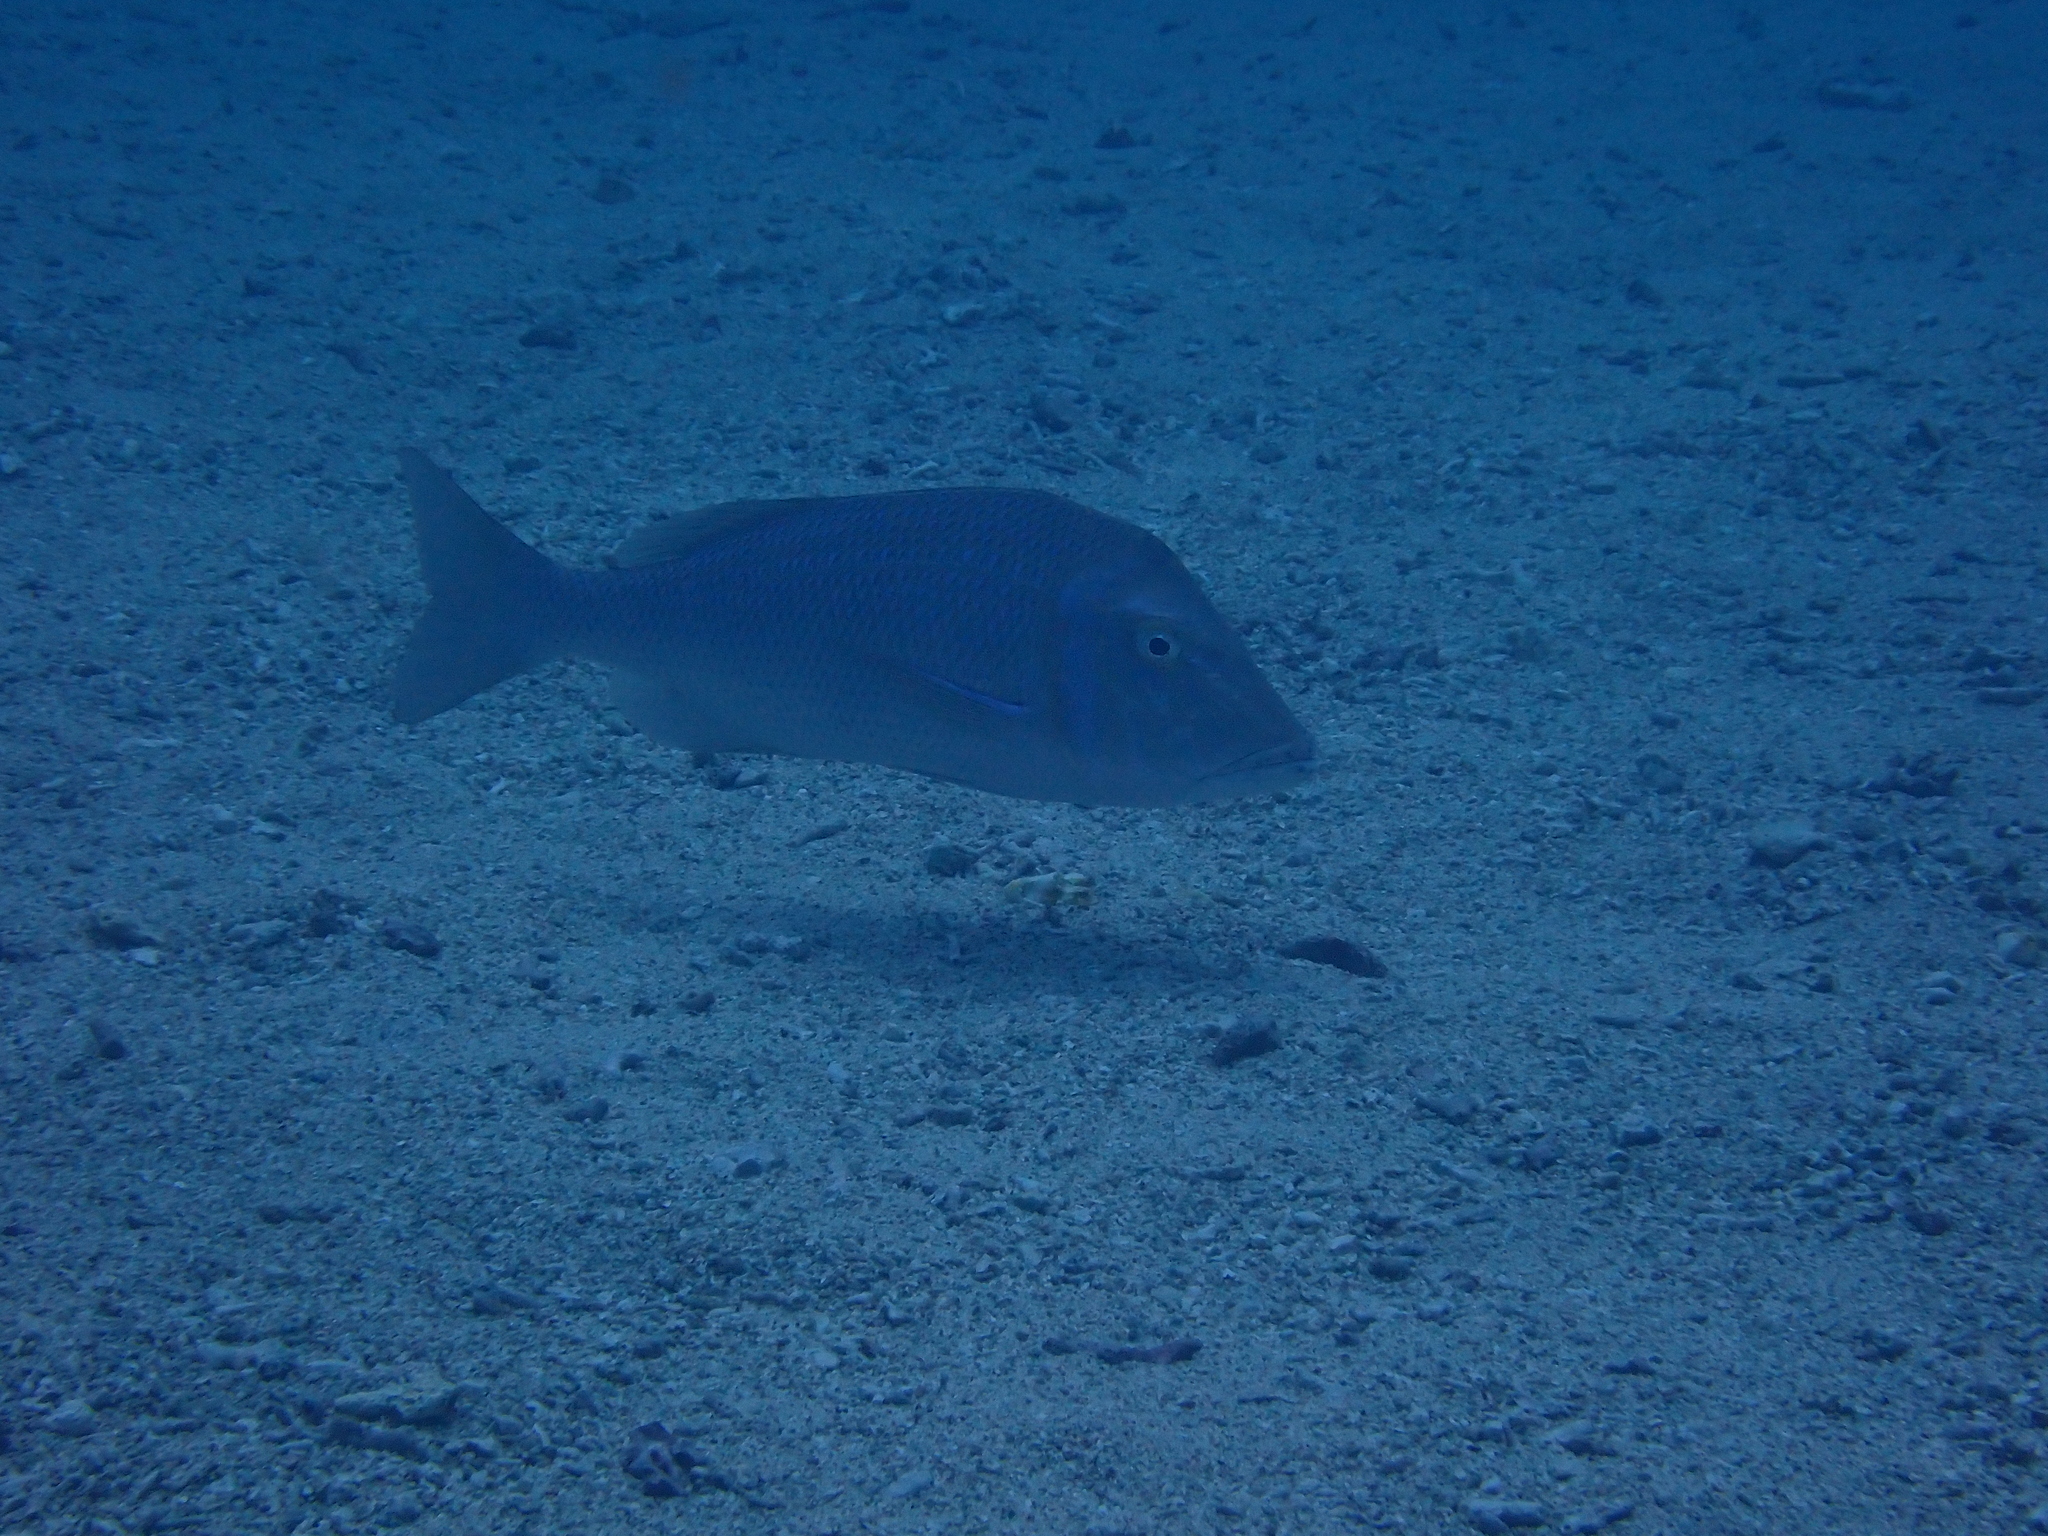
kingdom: Animalia
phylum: Chordata
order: Perciformes
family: Lethrinidae
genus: Lethrinus
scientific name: Lethrinus nebulosus
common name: Spangled emperor
